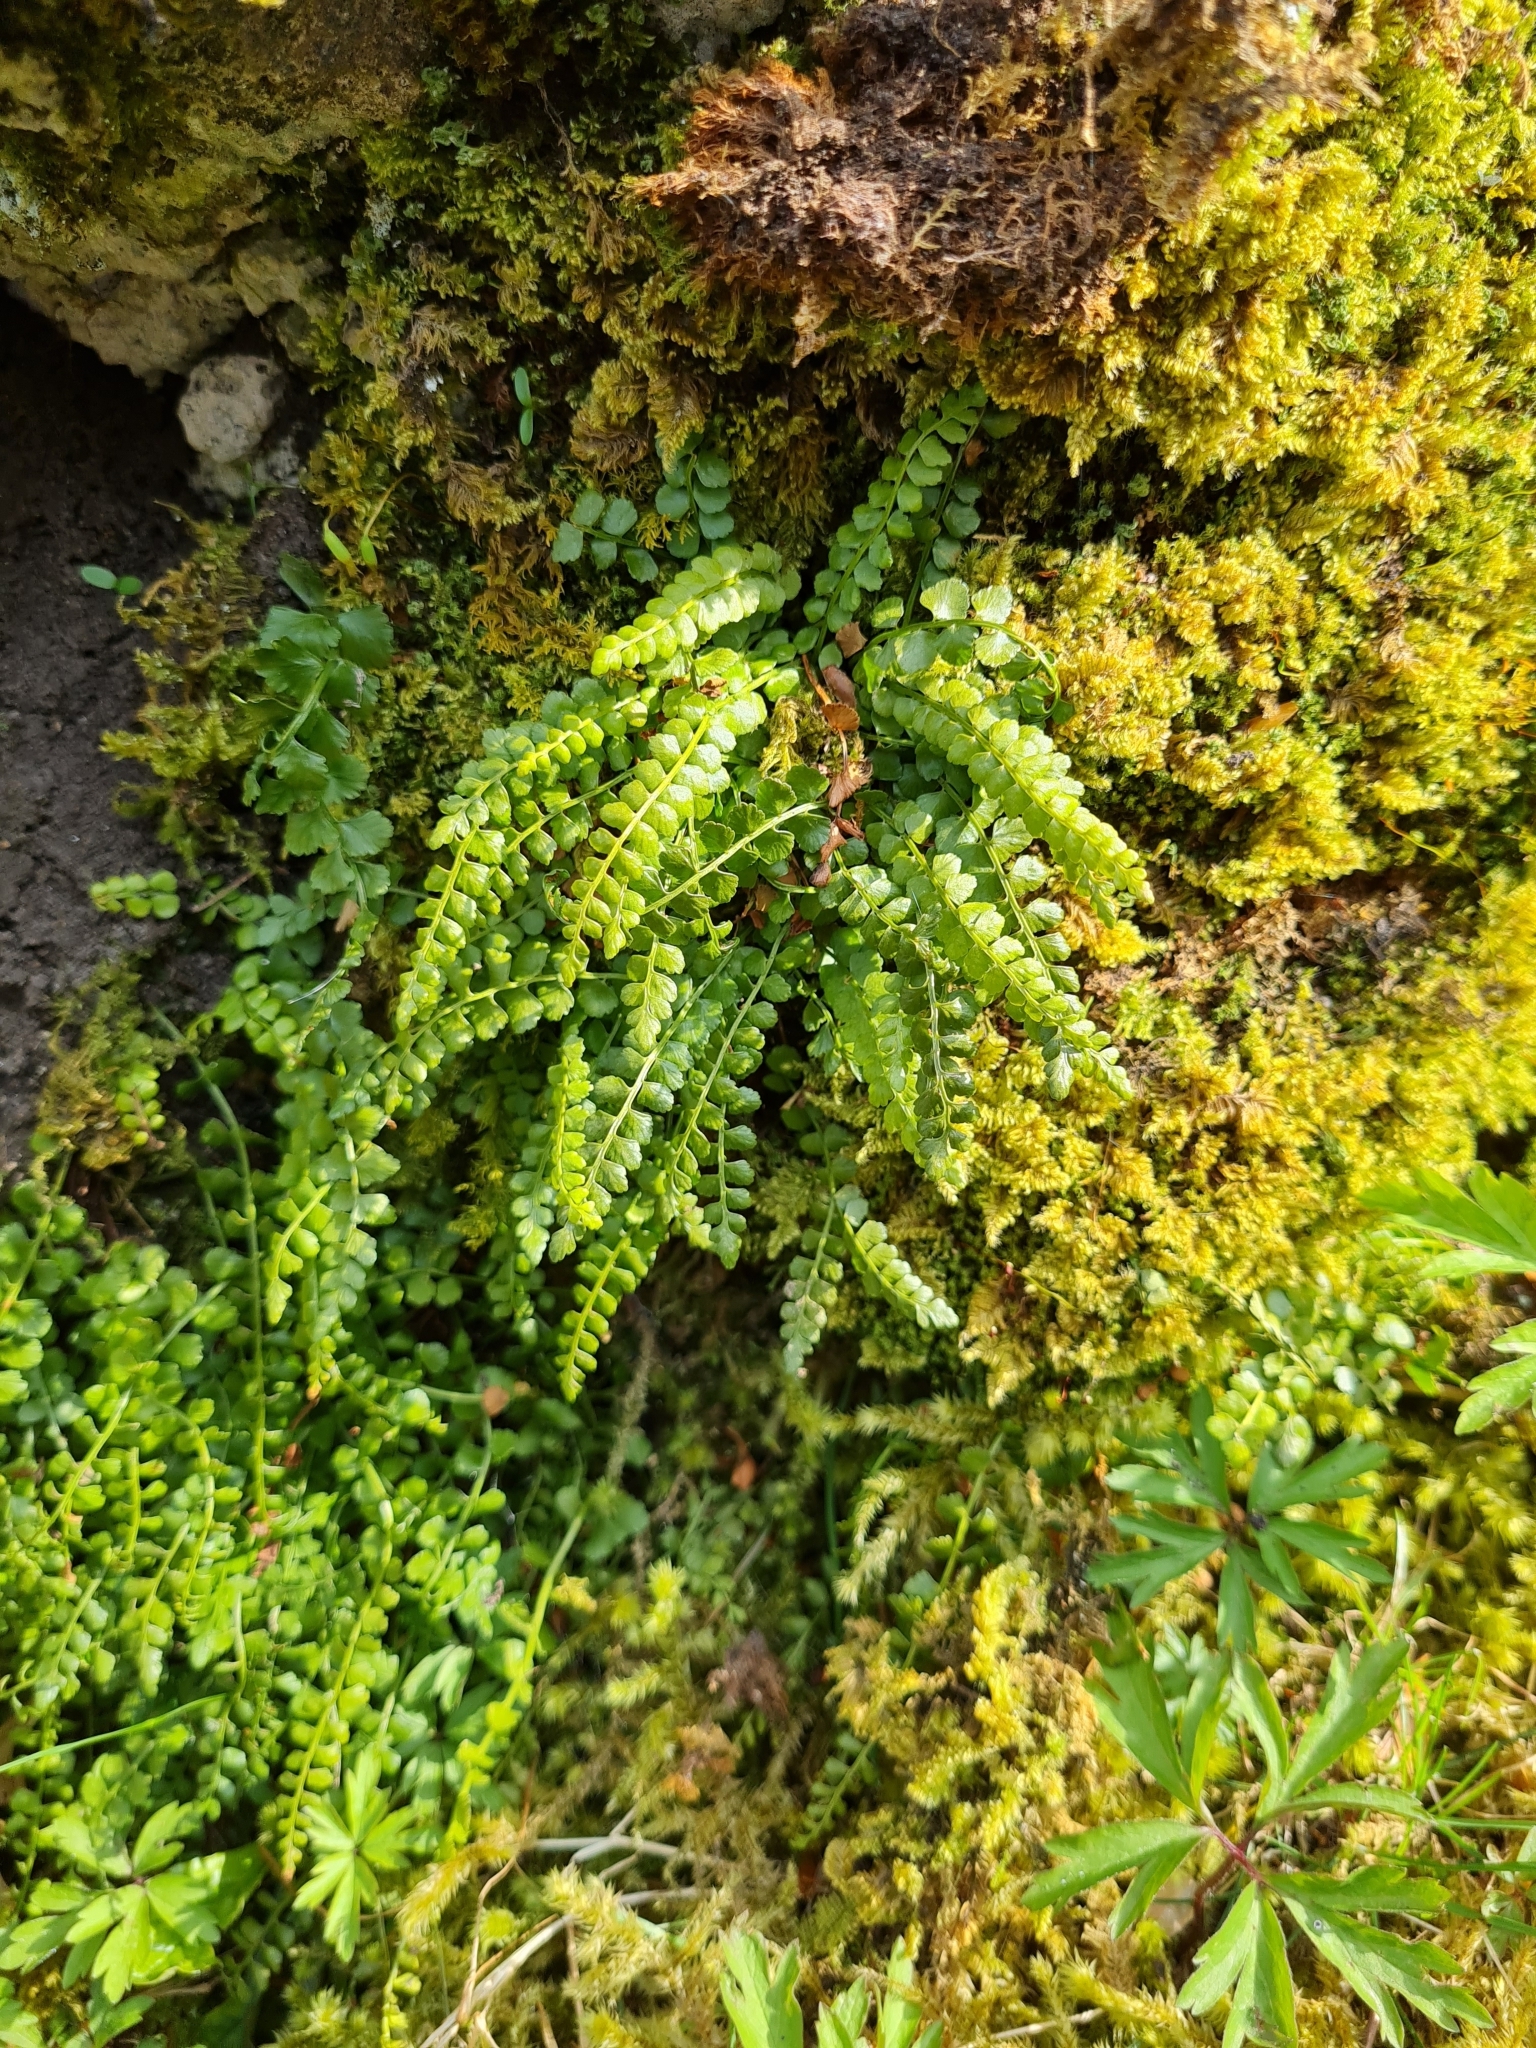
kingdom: Plantae
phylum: Tracheophyta
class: Polypodiopsida
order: Polypodiales
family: Aspleniaceae
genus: Asplenium
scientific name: Asplenium viride
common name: Green spleenwort
